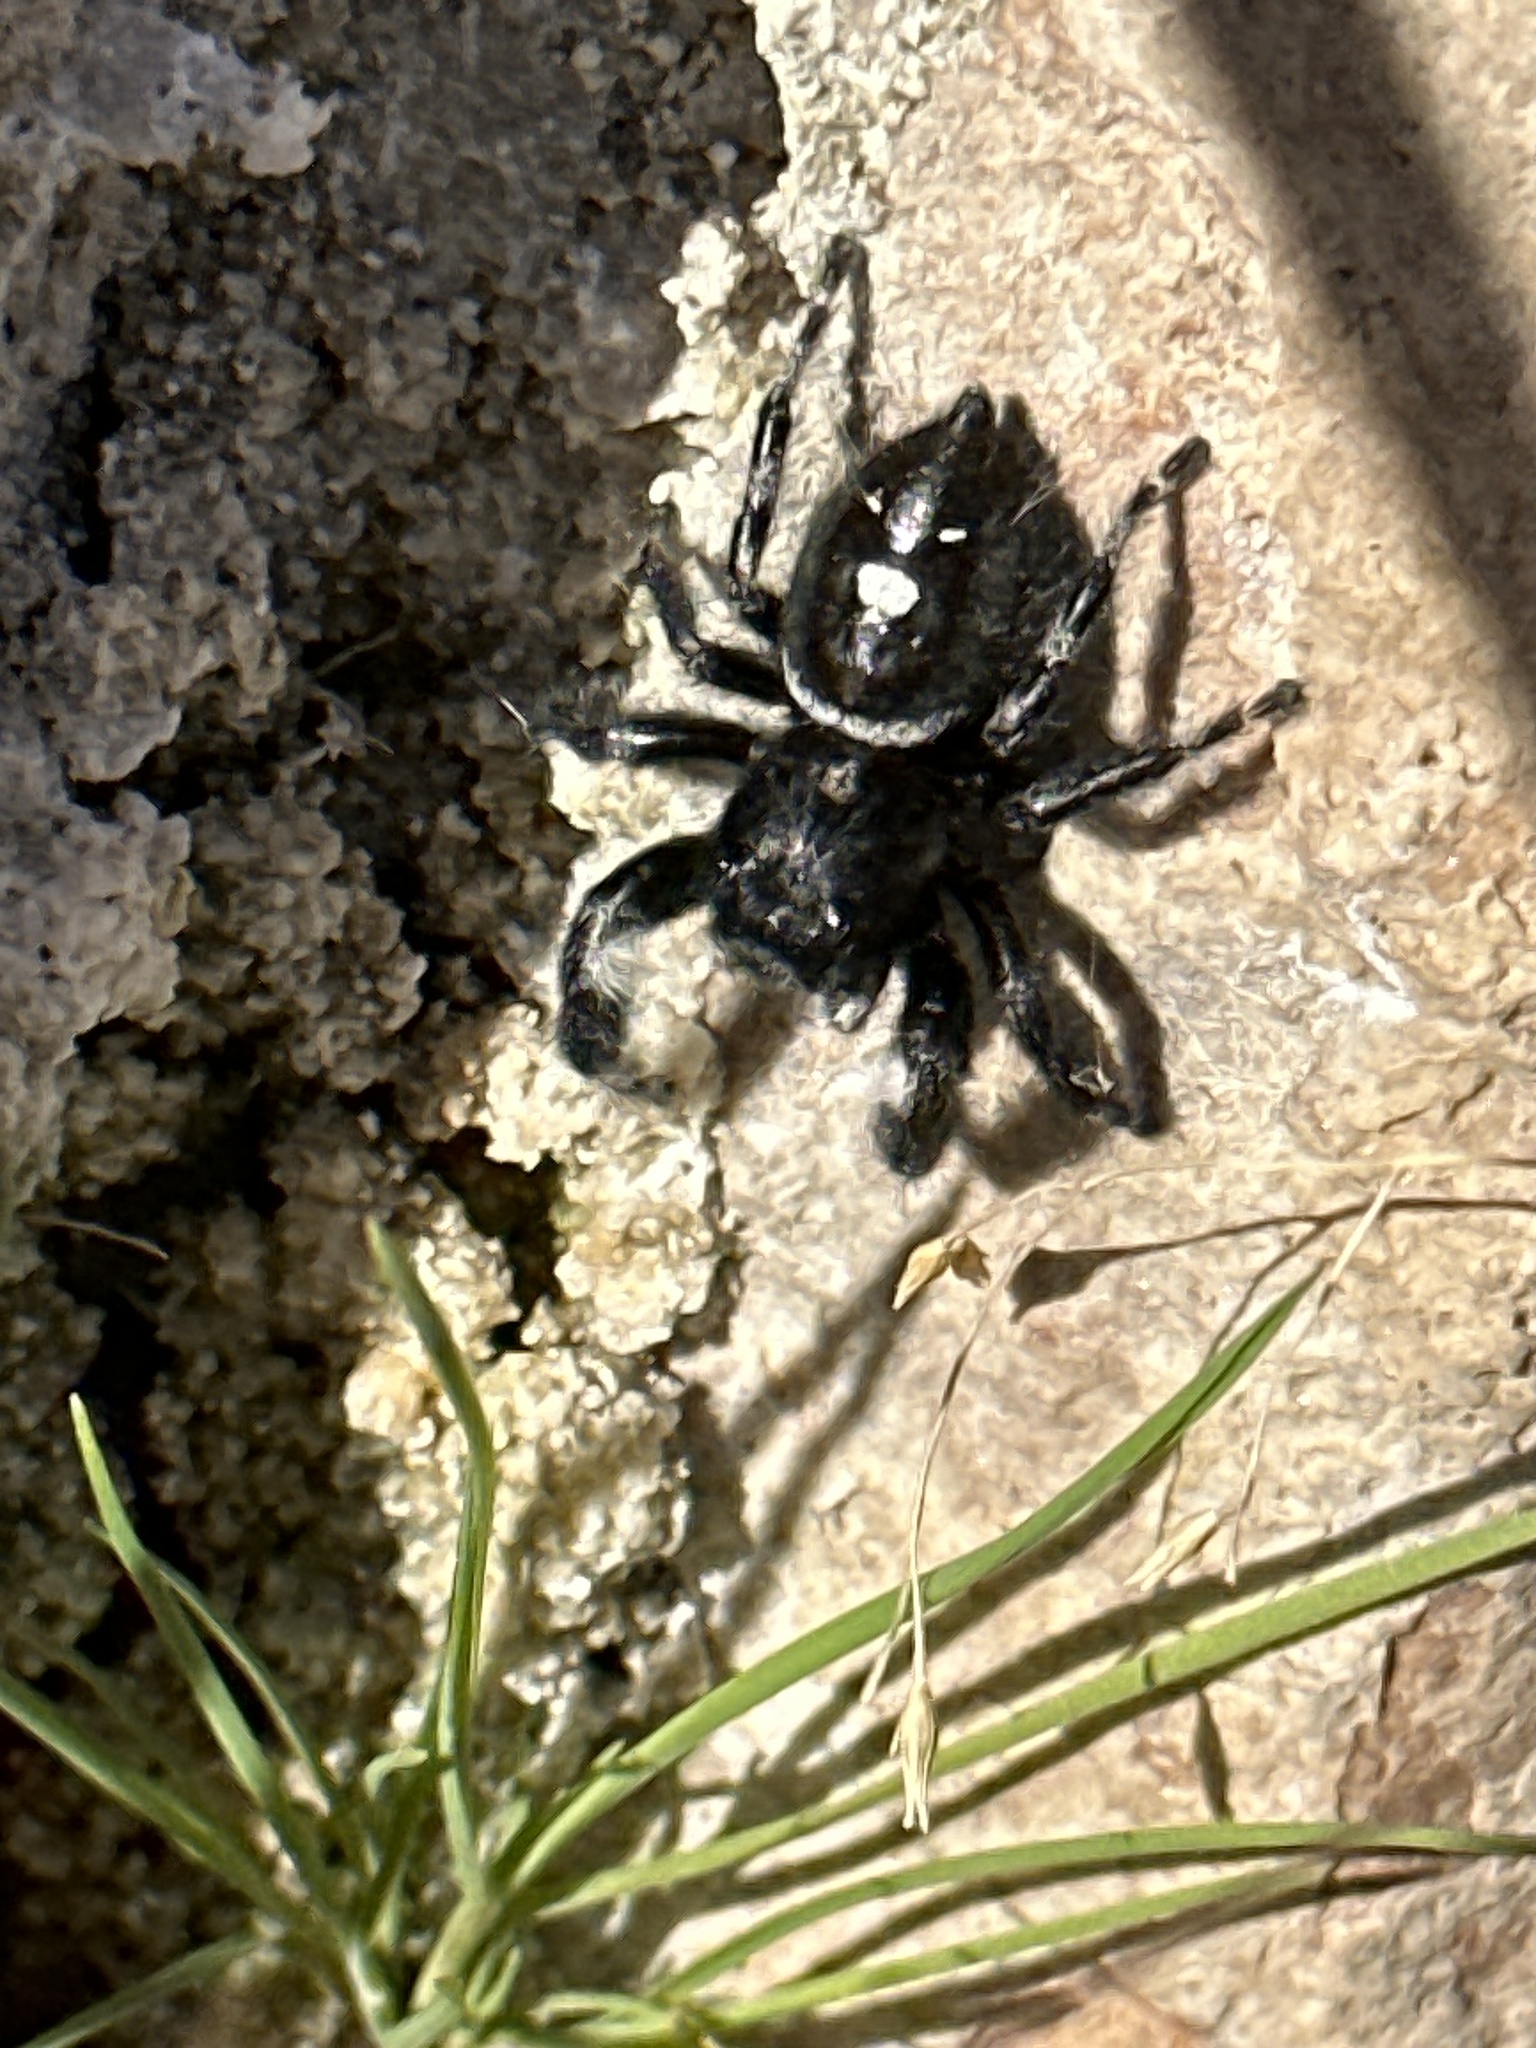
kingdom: Animalia
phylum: Arthropoda
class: Arachnida
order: Araneae
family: Salticidae
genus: Phidippus
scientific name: Phidippus audax
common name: Bold jumper
